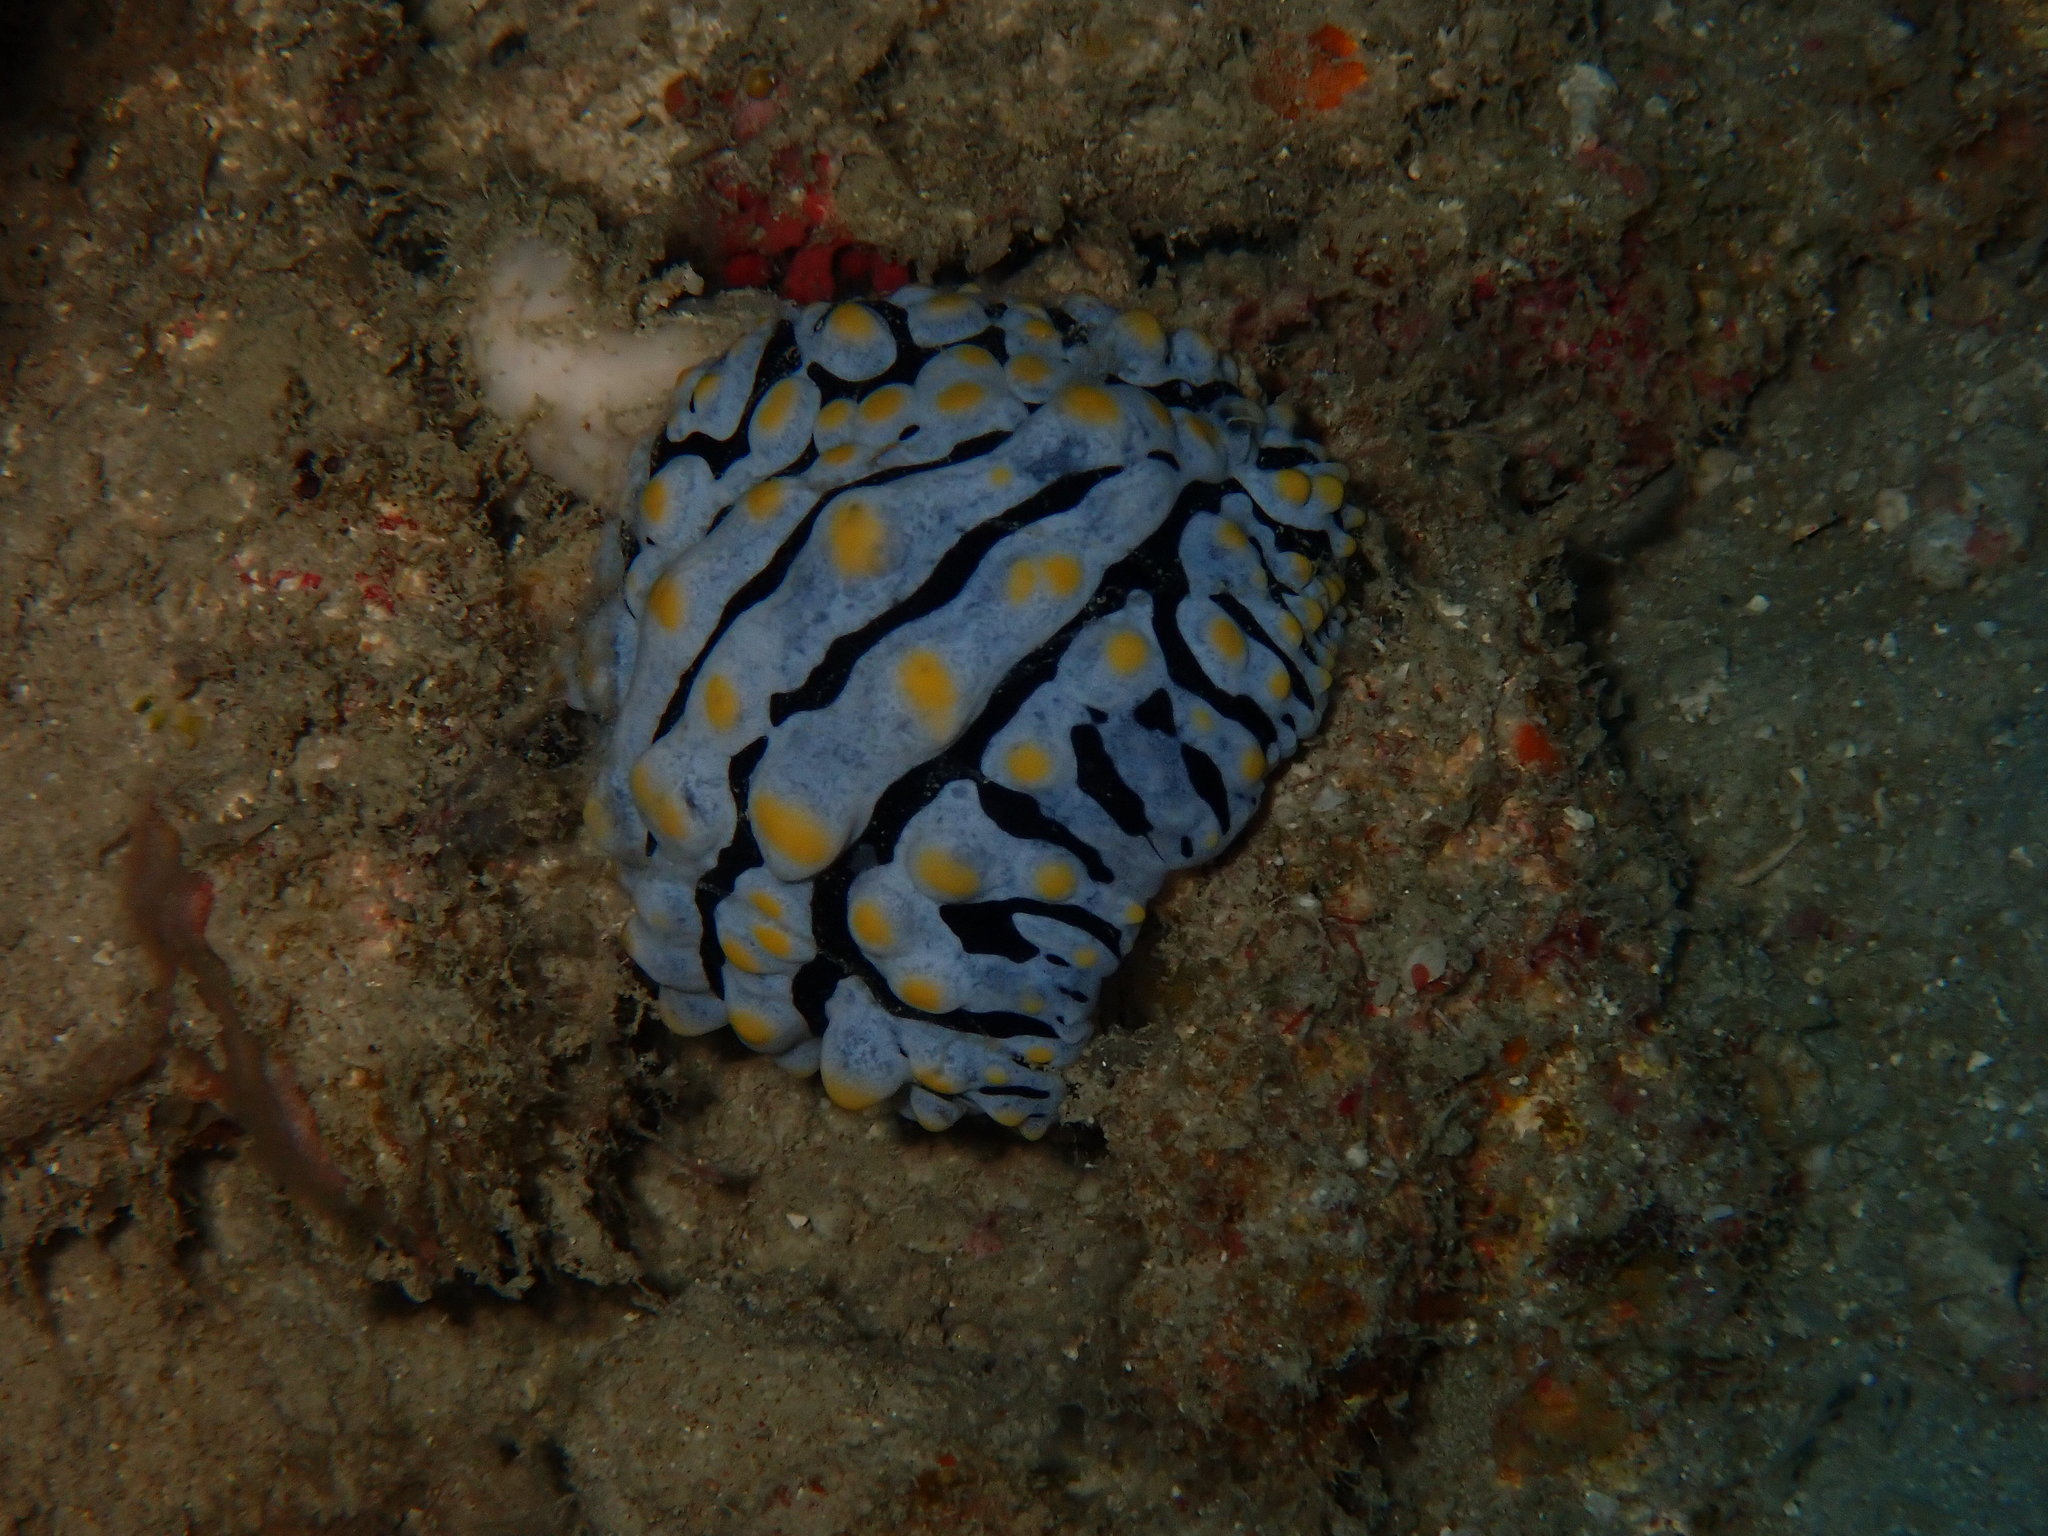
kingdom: Animalia
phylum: Mollusca
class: Gastropoda
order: Nudibranchia
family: Phyllidiidae
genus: Phyllidia
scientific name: Phyllidia varicosa
